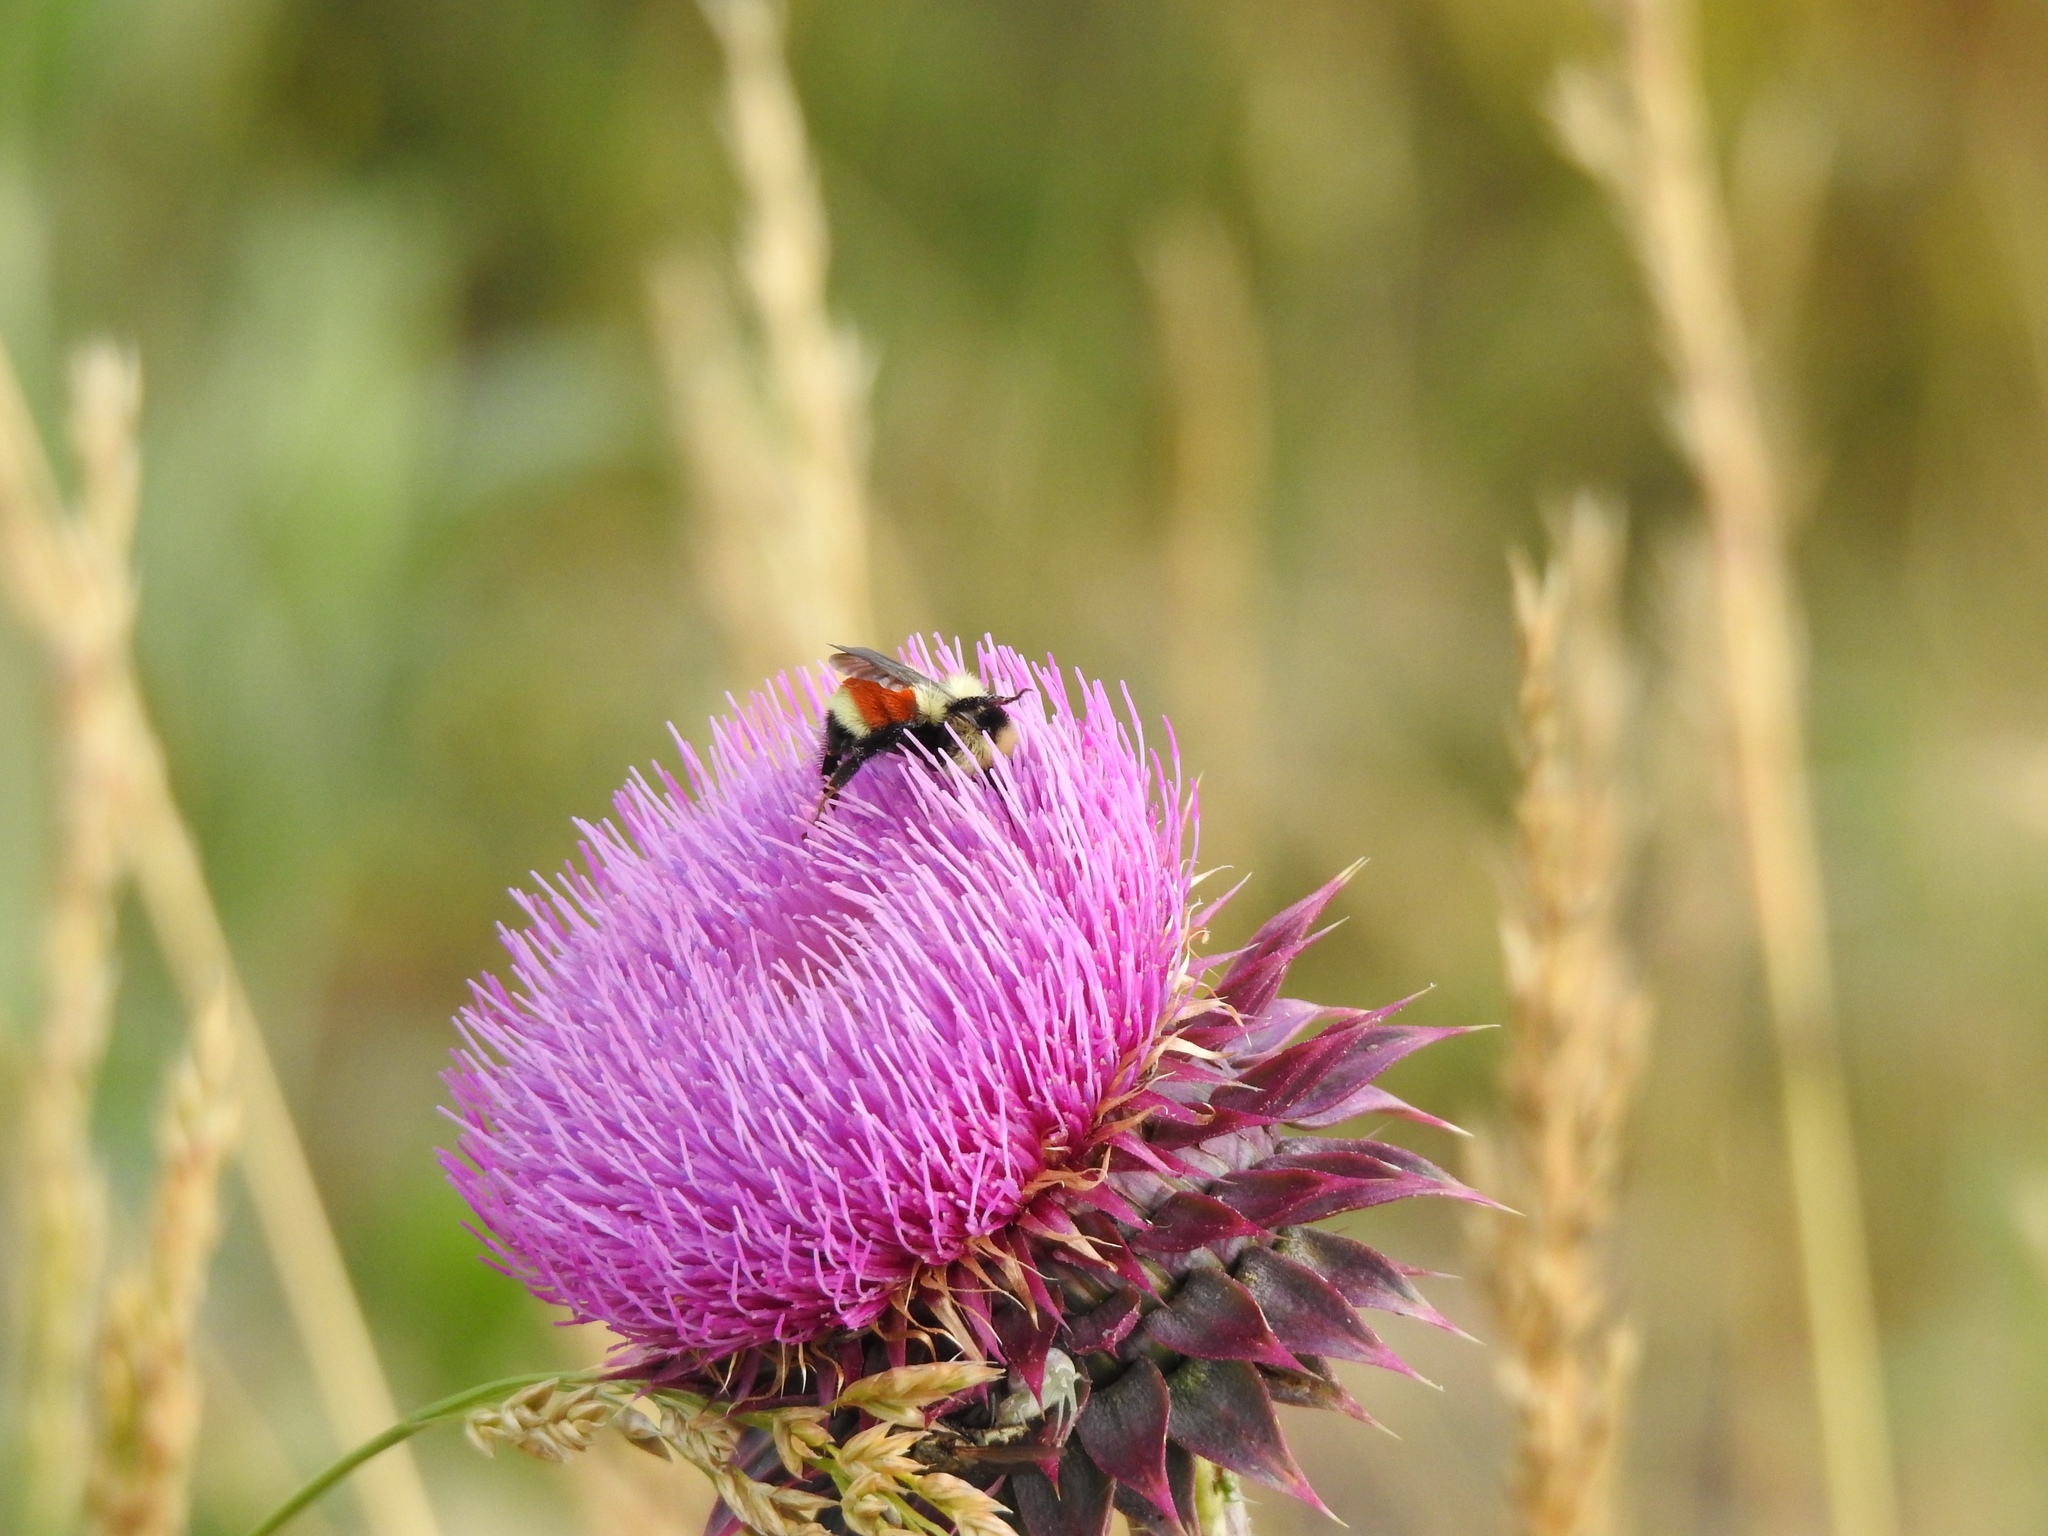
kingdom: Animalia
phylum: Arthropoda
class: Insecta
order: Hymenoptera
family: Apidae
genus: Bombus
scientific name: Bombus huntii
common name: Hunt bumble bee
